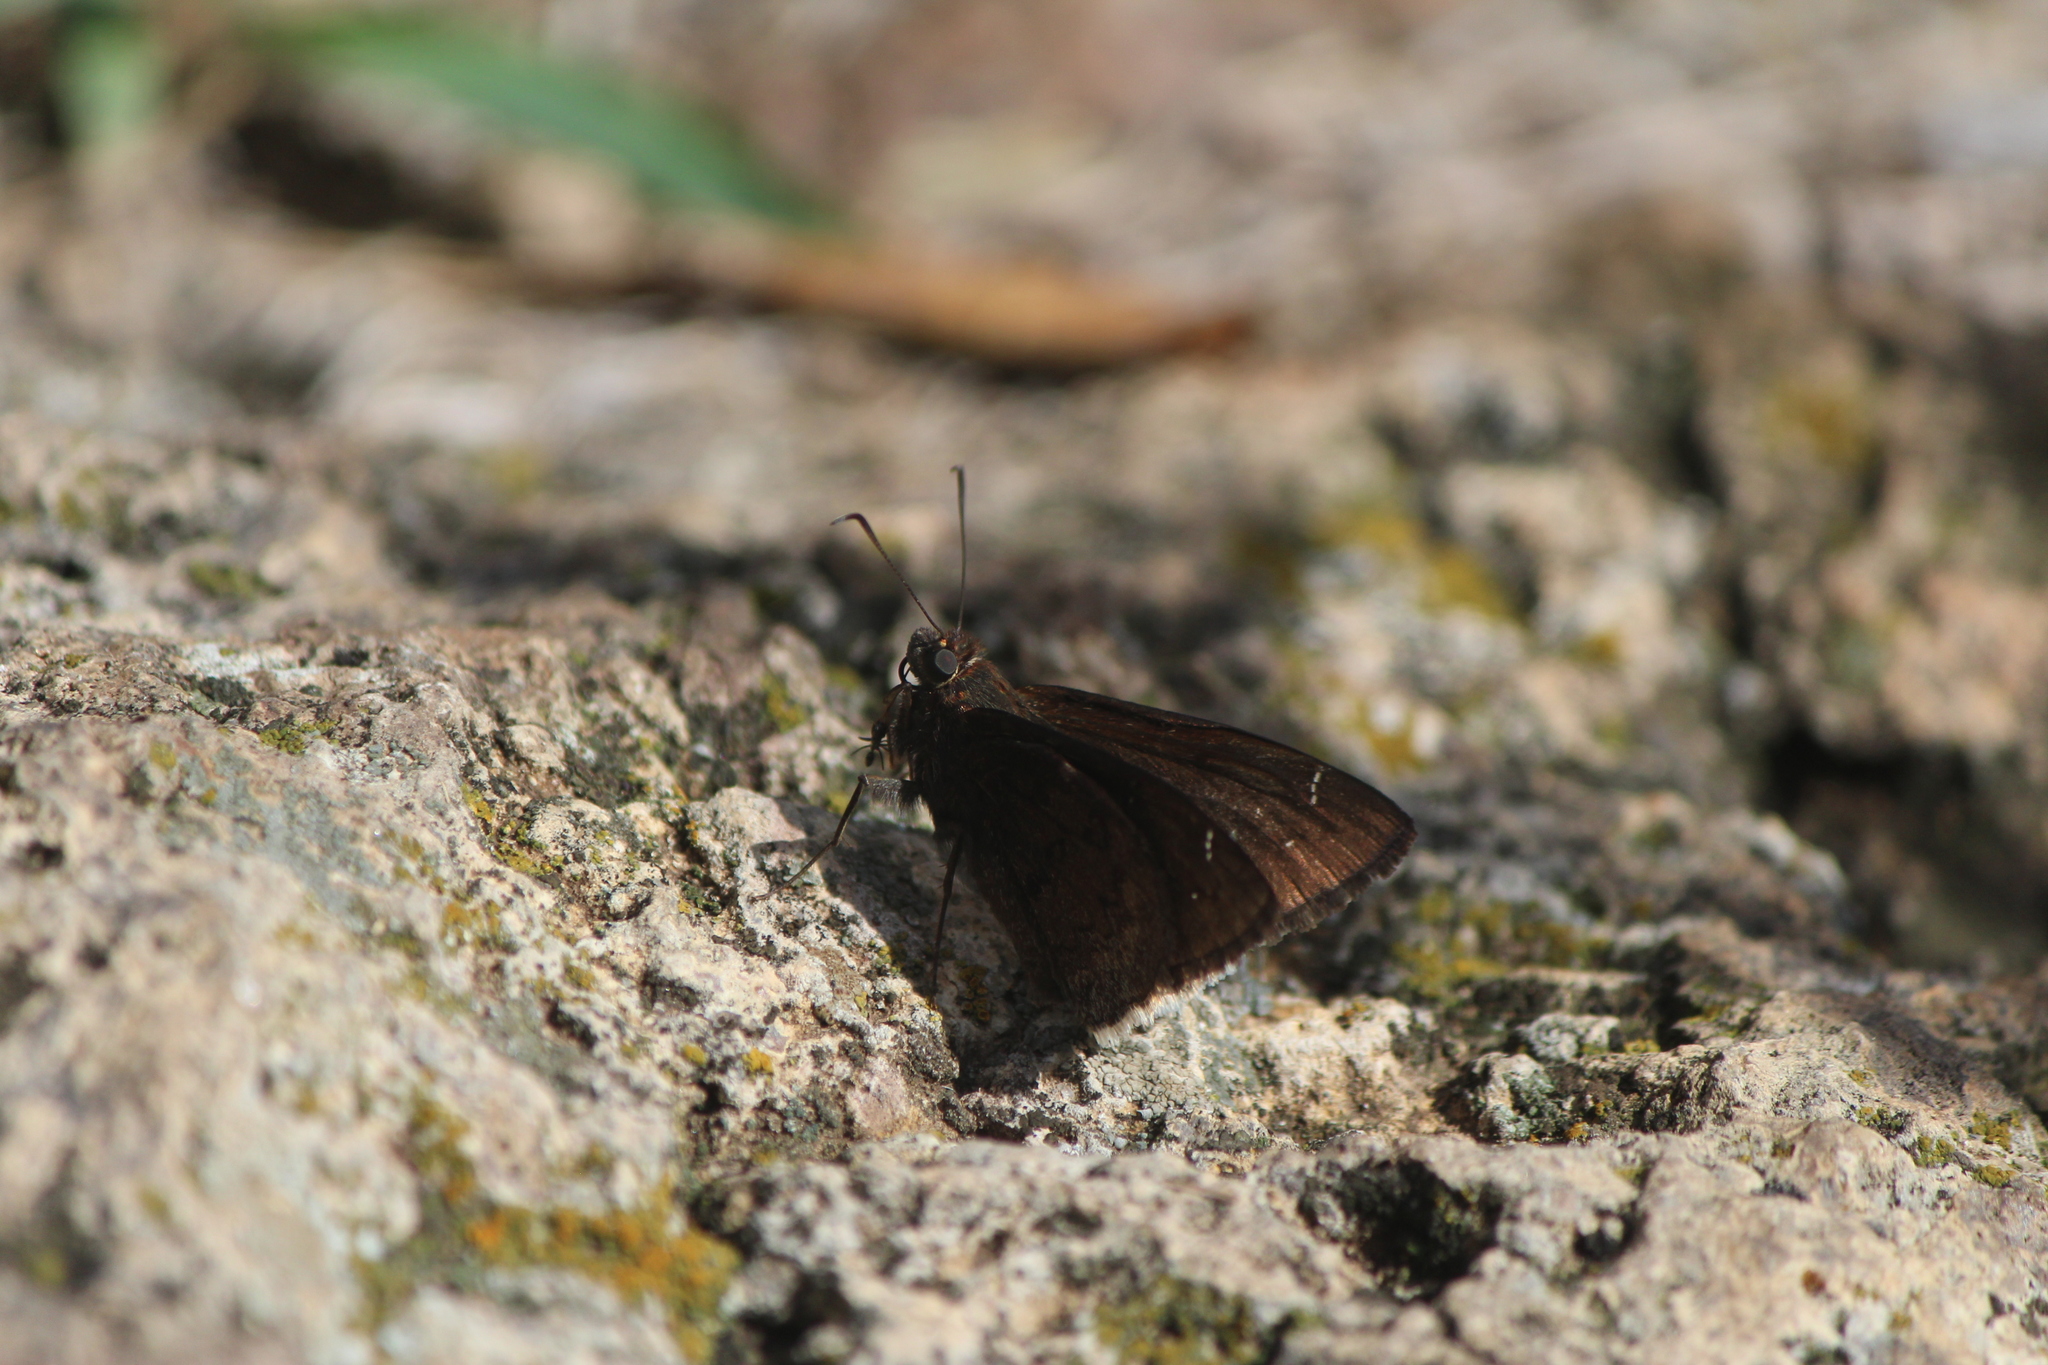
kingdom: Animalia
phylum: Arthropoda
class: Insecta
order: Lepidoptera
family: Hesperiidae
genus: Thorybes
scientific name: Thorybes pylades
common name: Northern cloudywing
